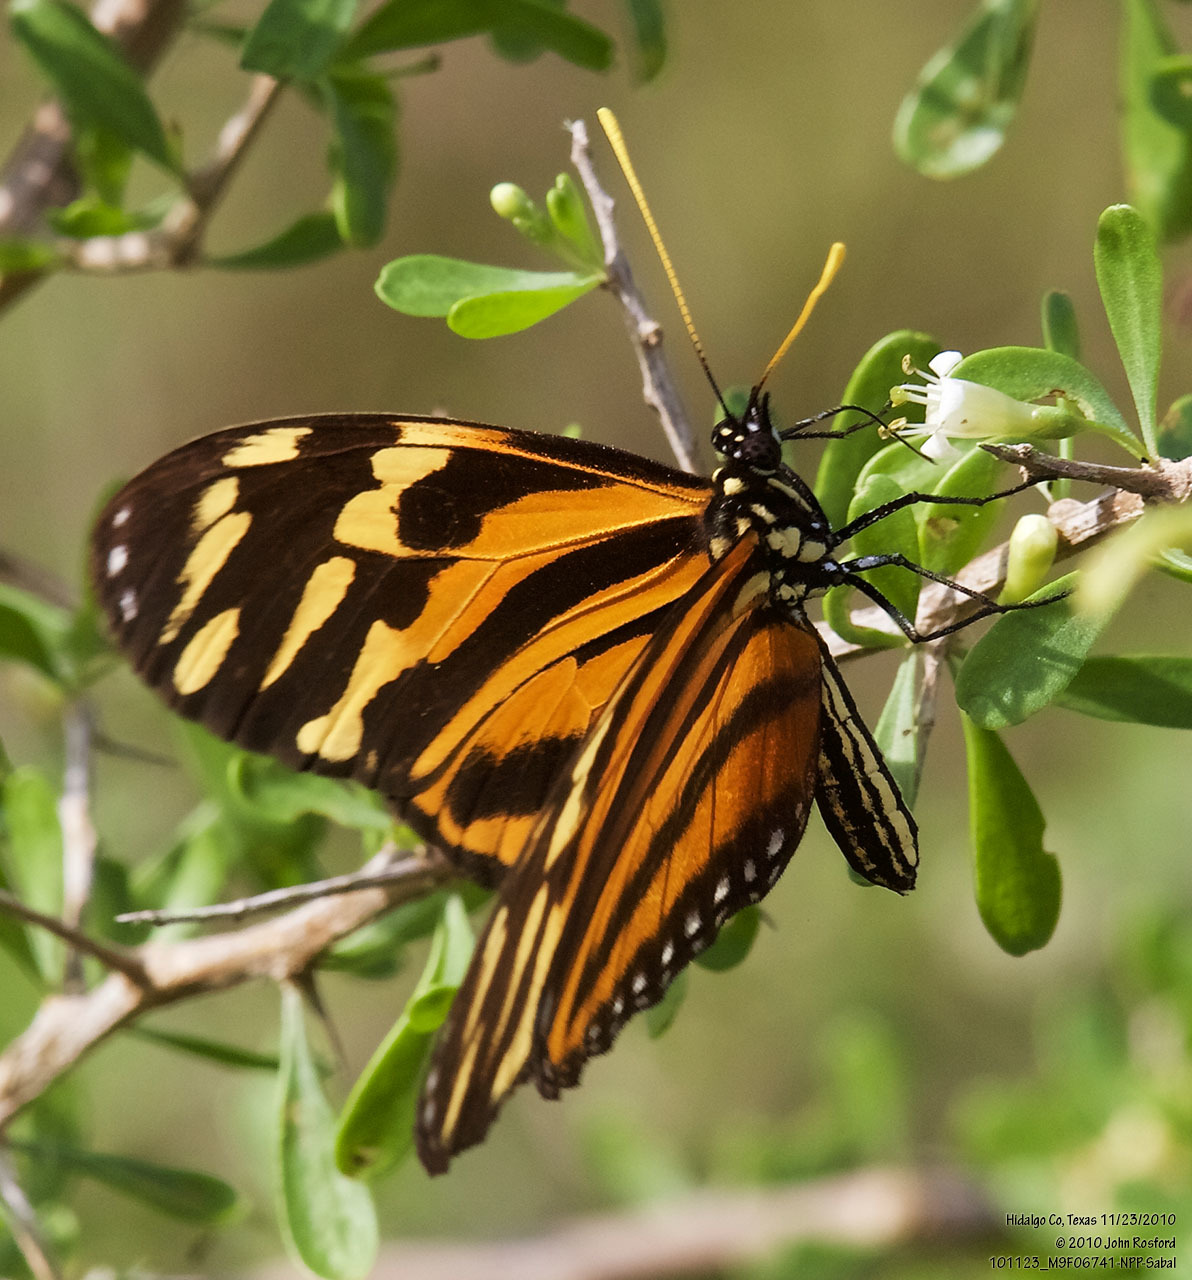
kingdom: Animalia
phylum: Arthropoda
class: Insecta
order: Lepidoptera
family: Nymphalidae
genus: Eueides
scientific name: Eueides isabella
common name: Isabella's longwing
